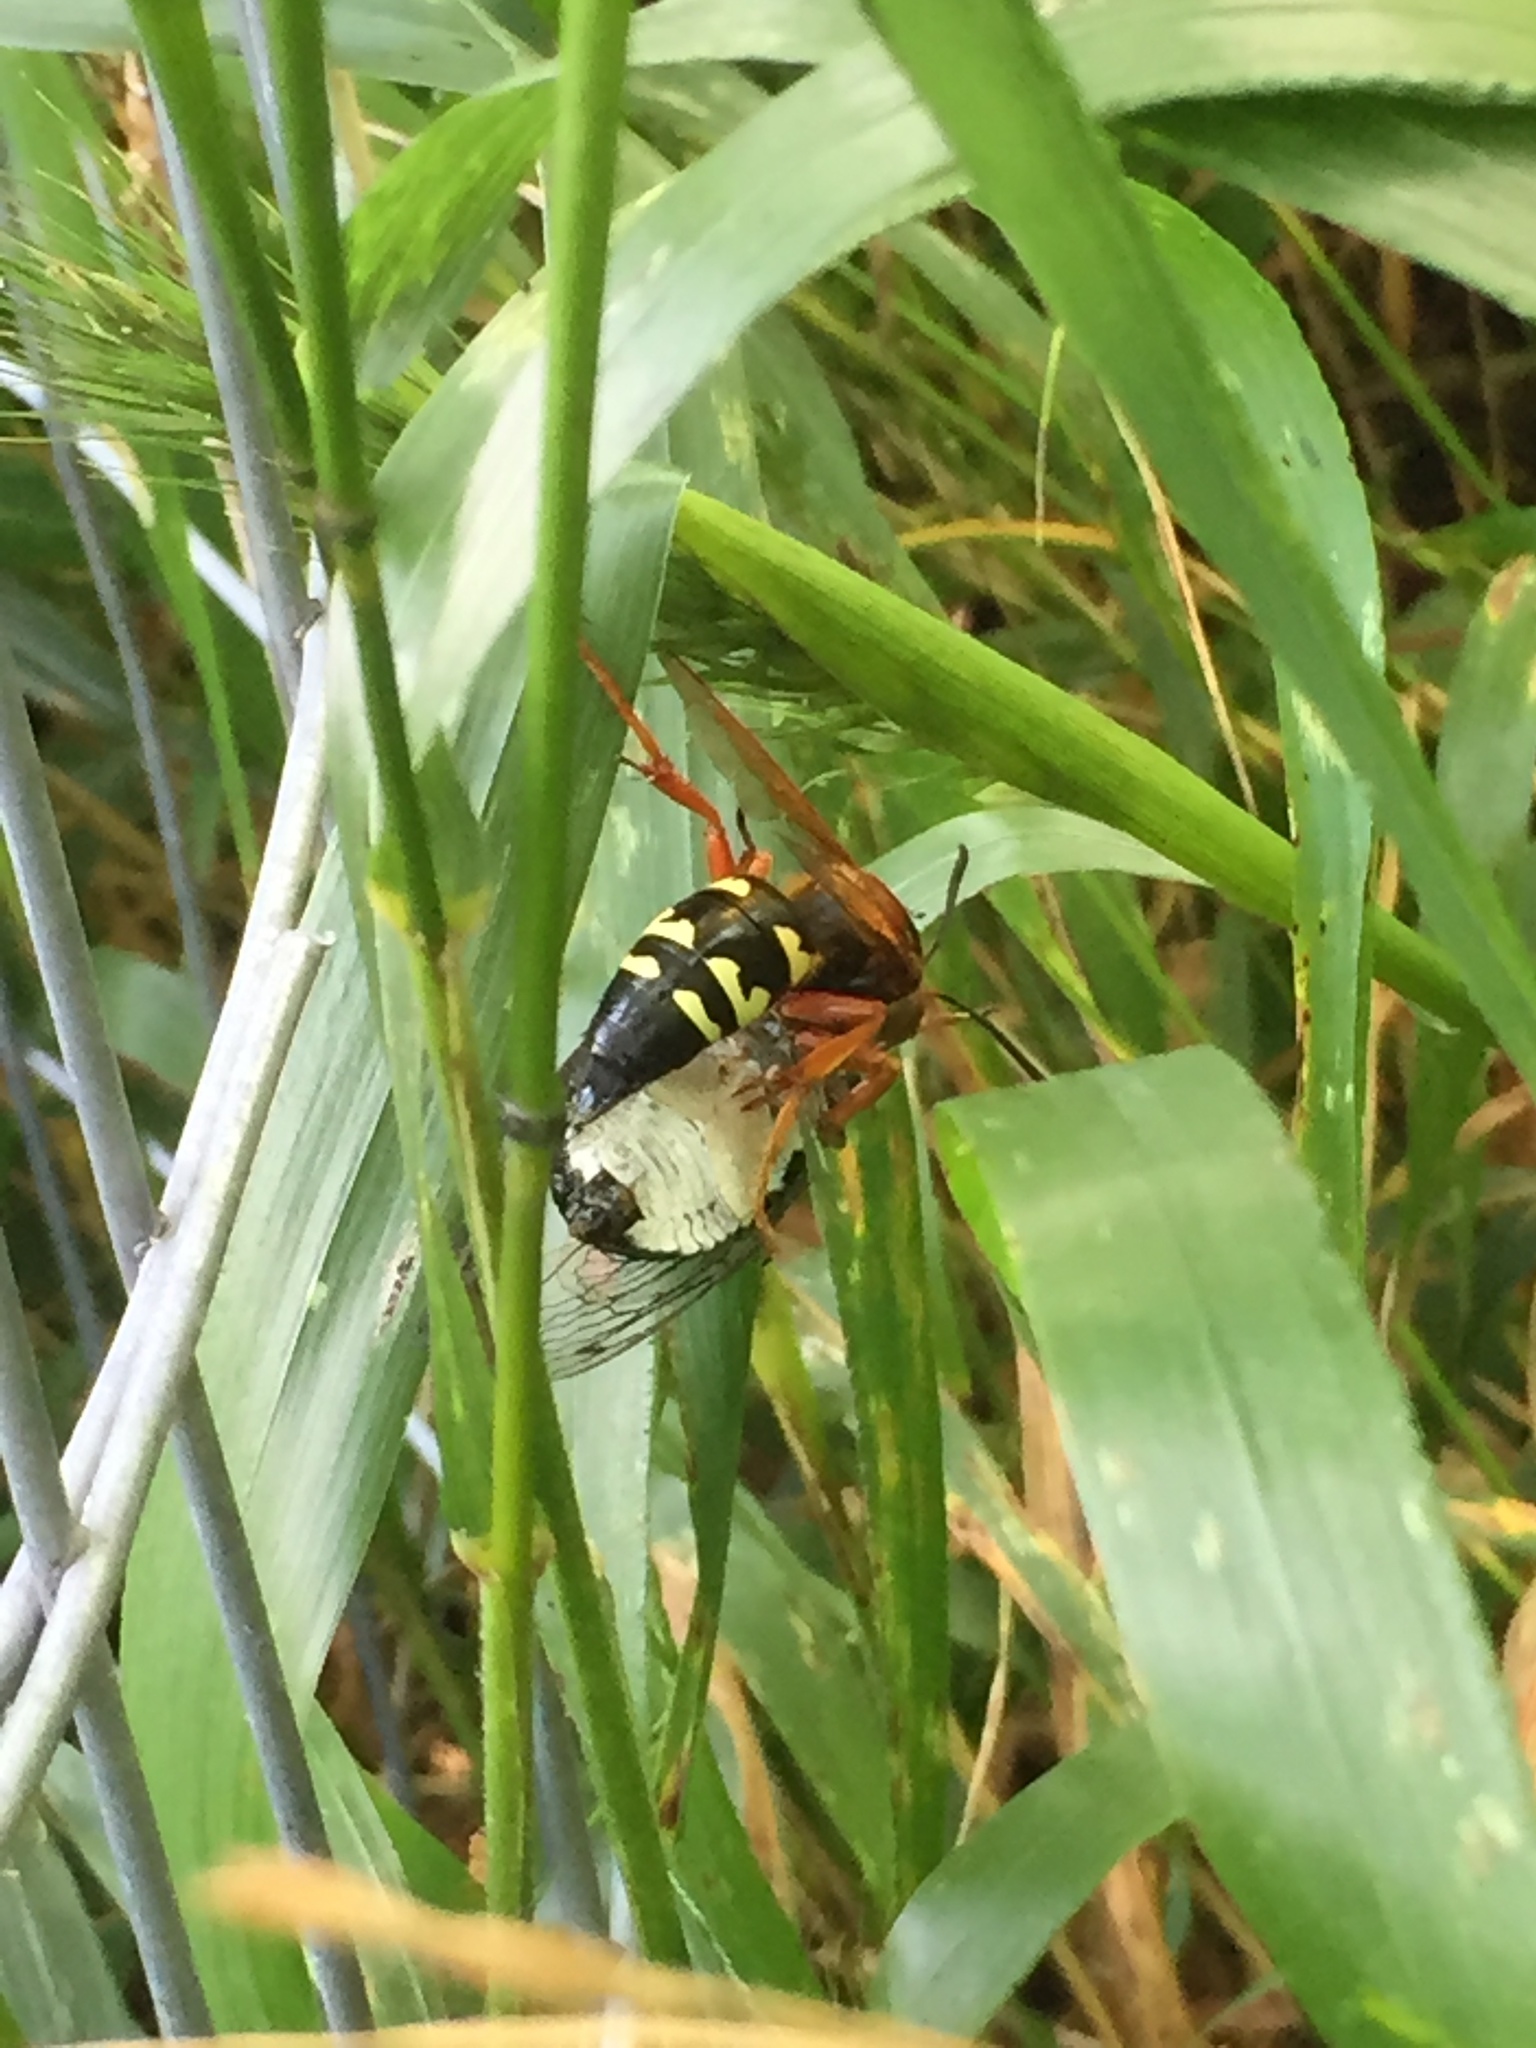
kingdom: Animalia
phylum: Arthropoda
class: Insecta
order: Hymenoptera
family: Crabronidae
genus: Sphecius
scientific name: Sphecius speciosus
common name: Cicada killer
